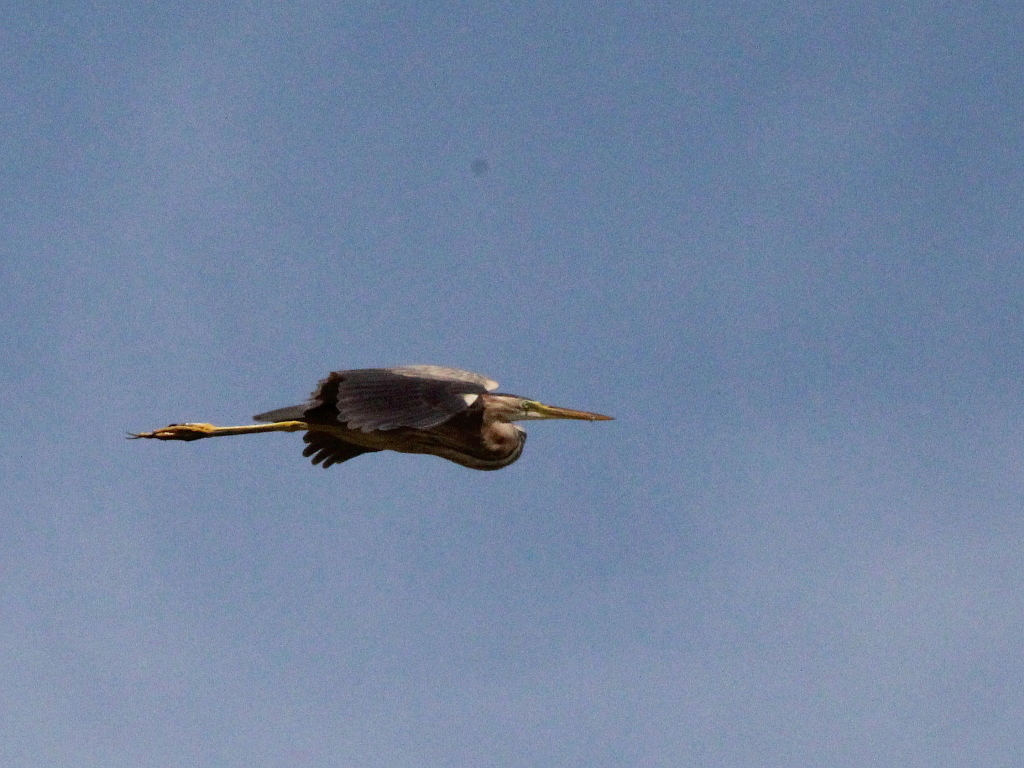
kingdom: Animalia
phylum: Chordata
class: Aves
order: Pelecaniformes
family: Ardeidae
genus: Ardea
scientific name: Ardea purpurea
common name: Purple heron
